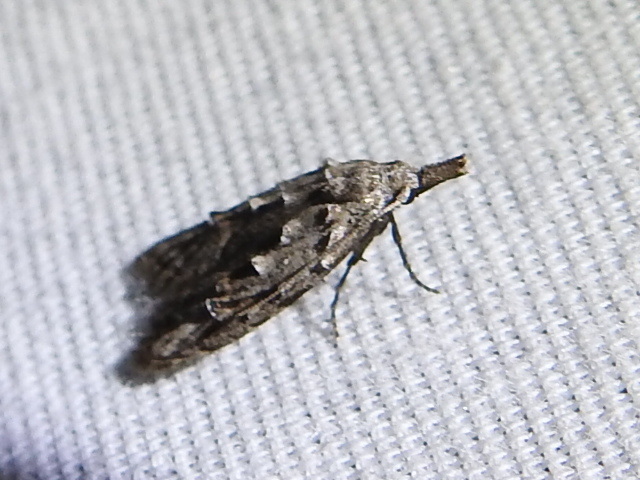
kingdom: Animalia
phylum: Arthropoda
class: Insecta
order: Lepidoptera
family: Carposinidae
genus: Carposina
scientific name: Carposina ottawana
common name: American peach fruit moth
